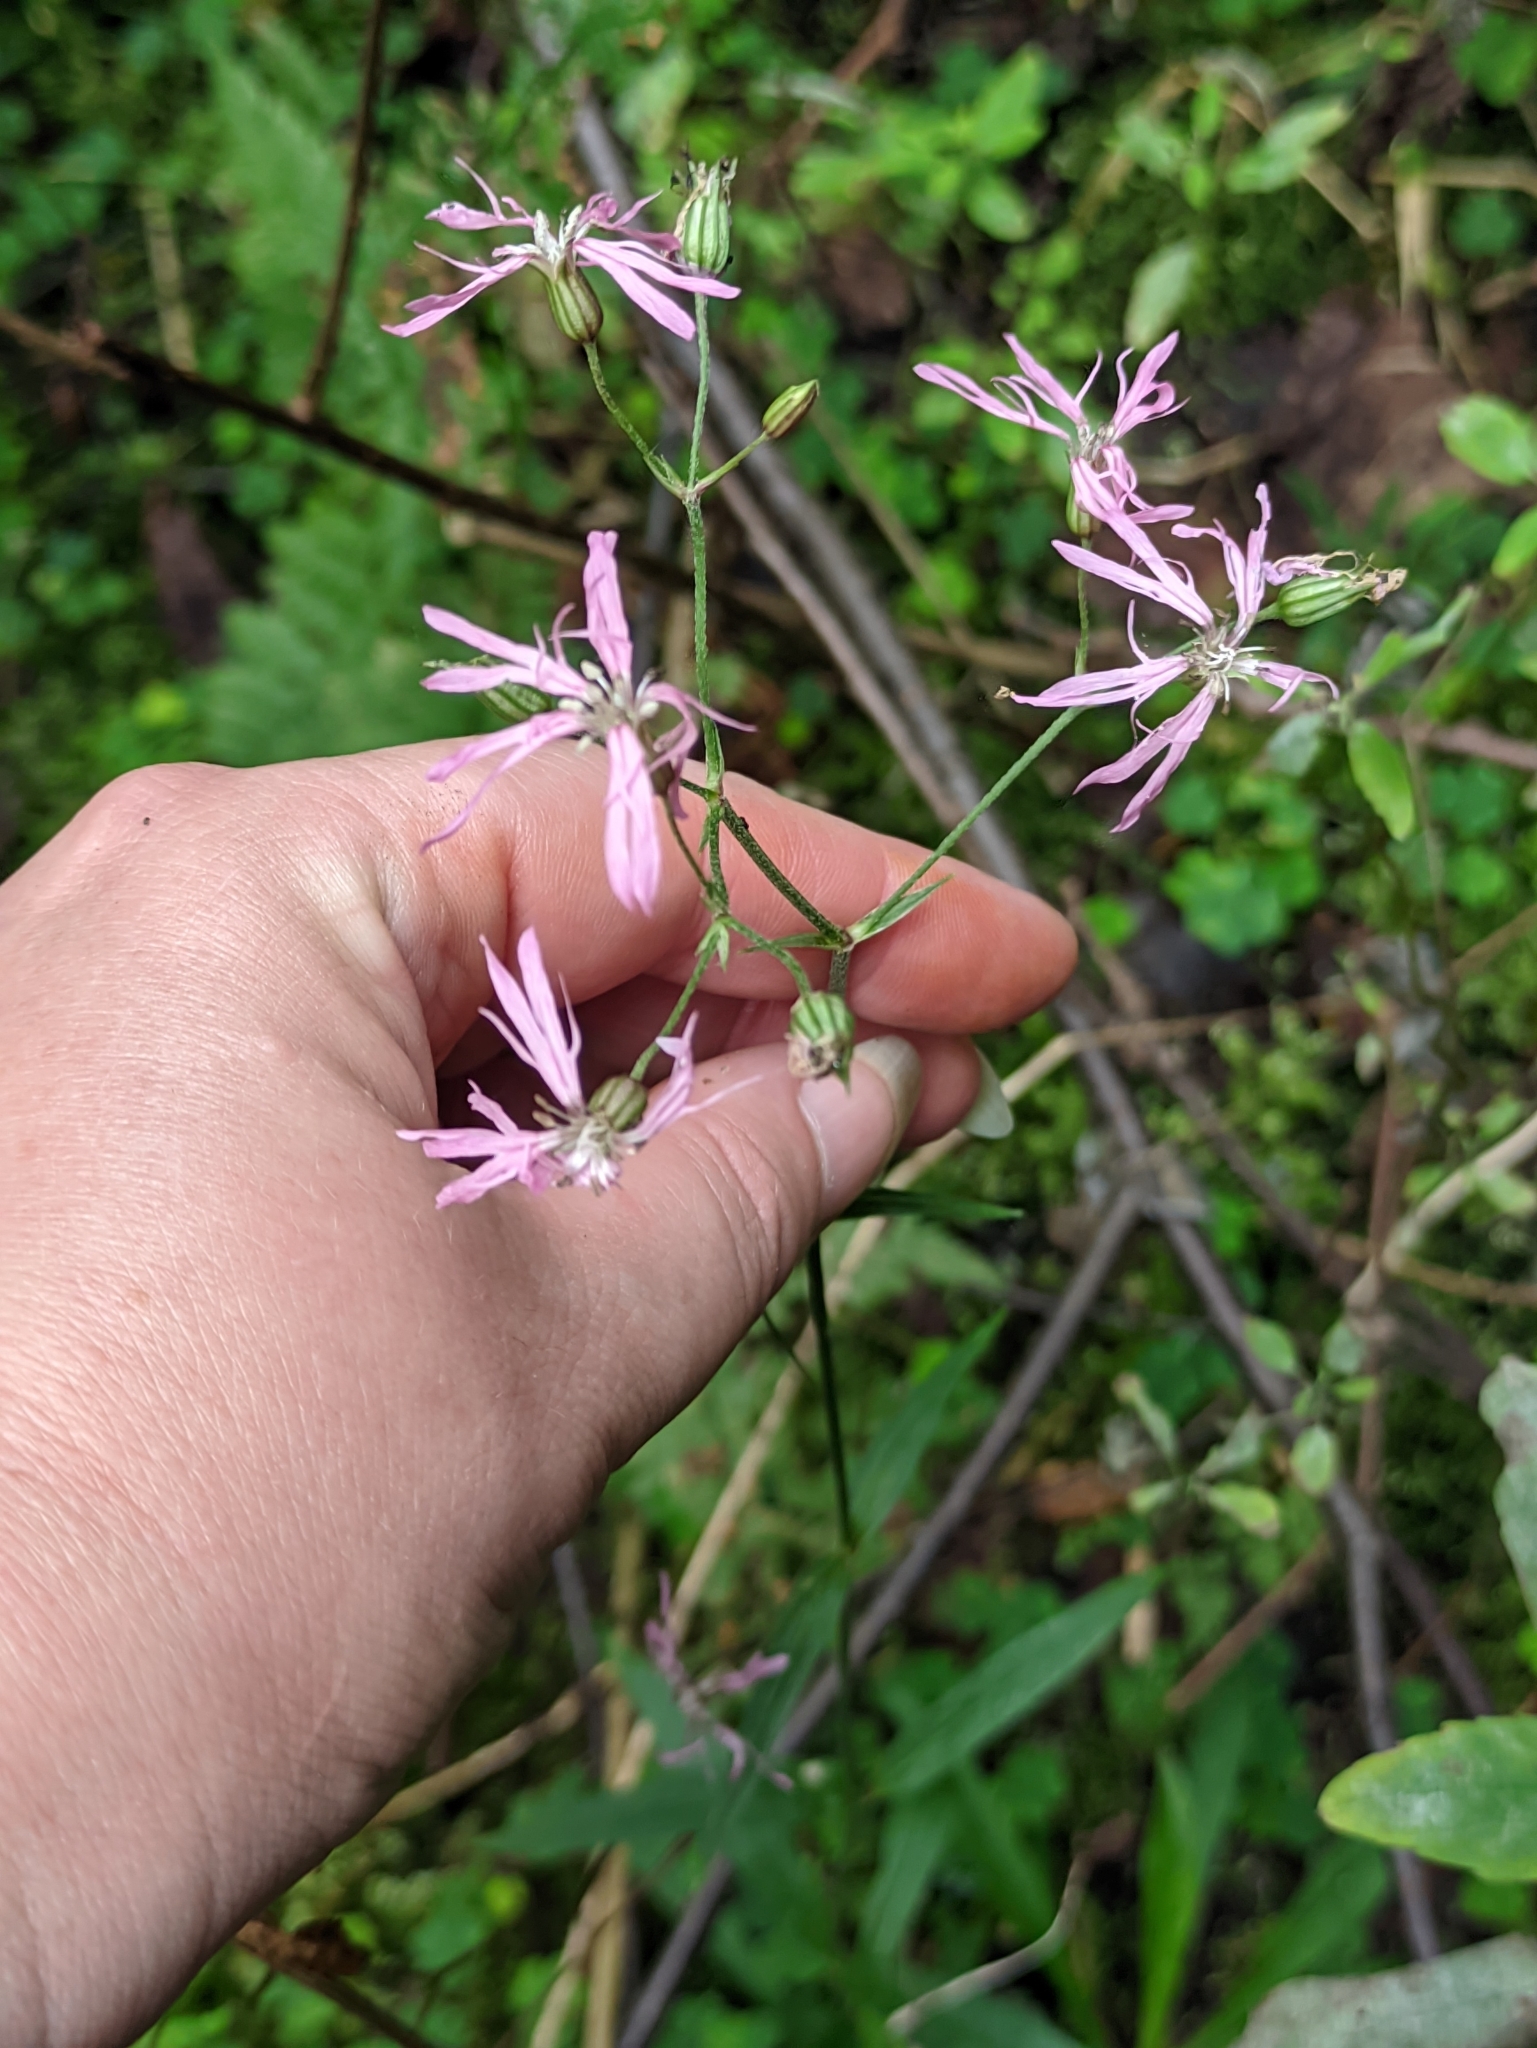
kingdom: Plantae
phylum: Tracheophyta
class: Magnoliopsida
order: Caryophyllales
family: Caryophyllaceae
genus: Silene
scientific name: Silene flos-cuculi
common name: Ragged-robin
